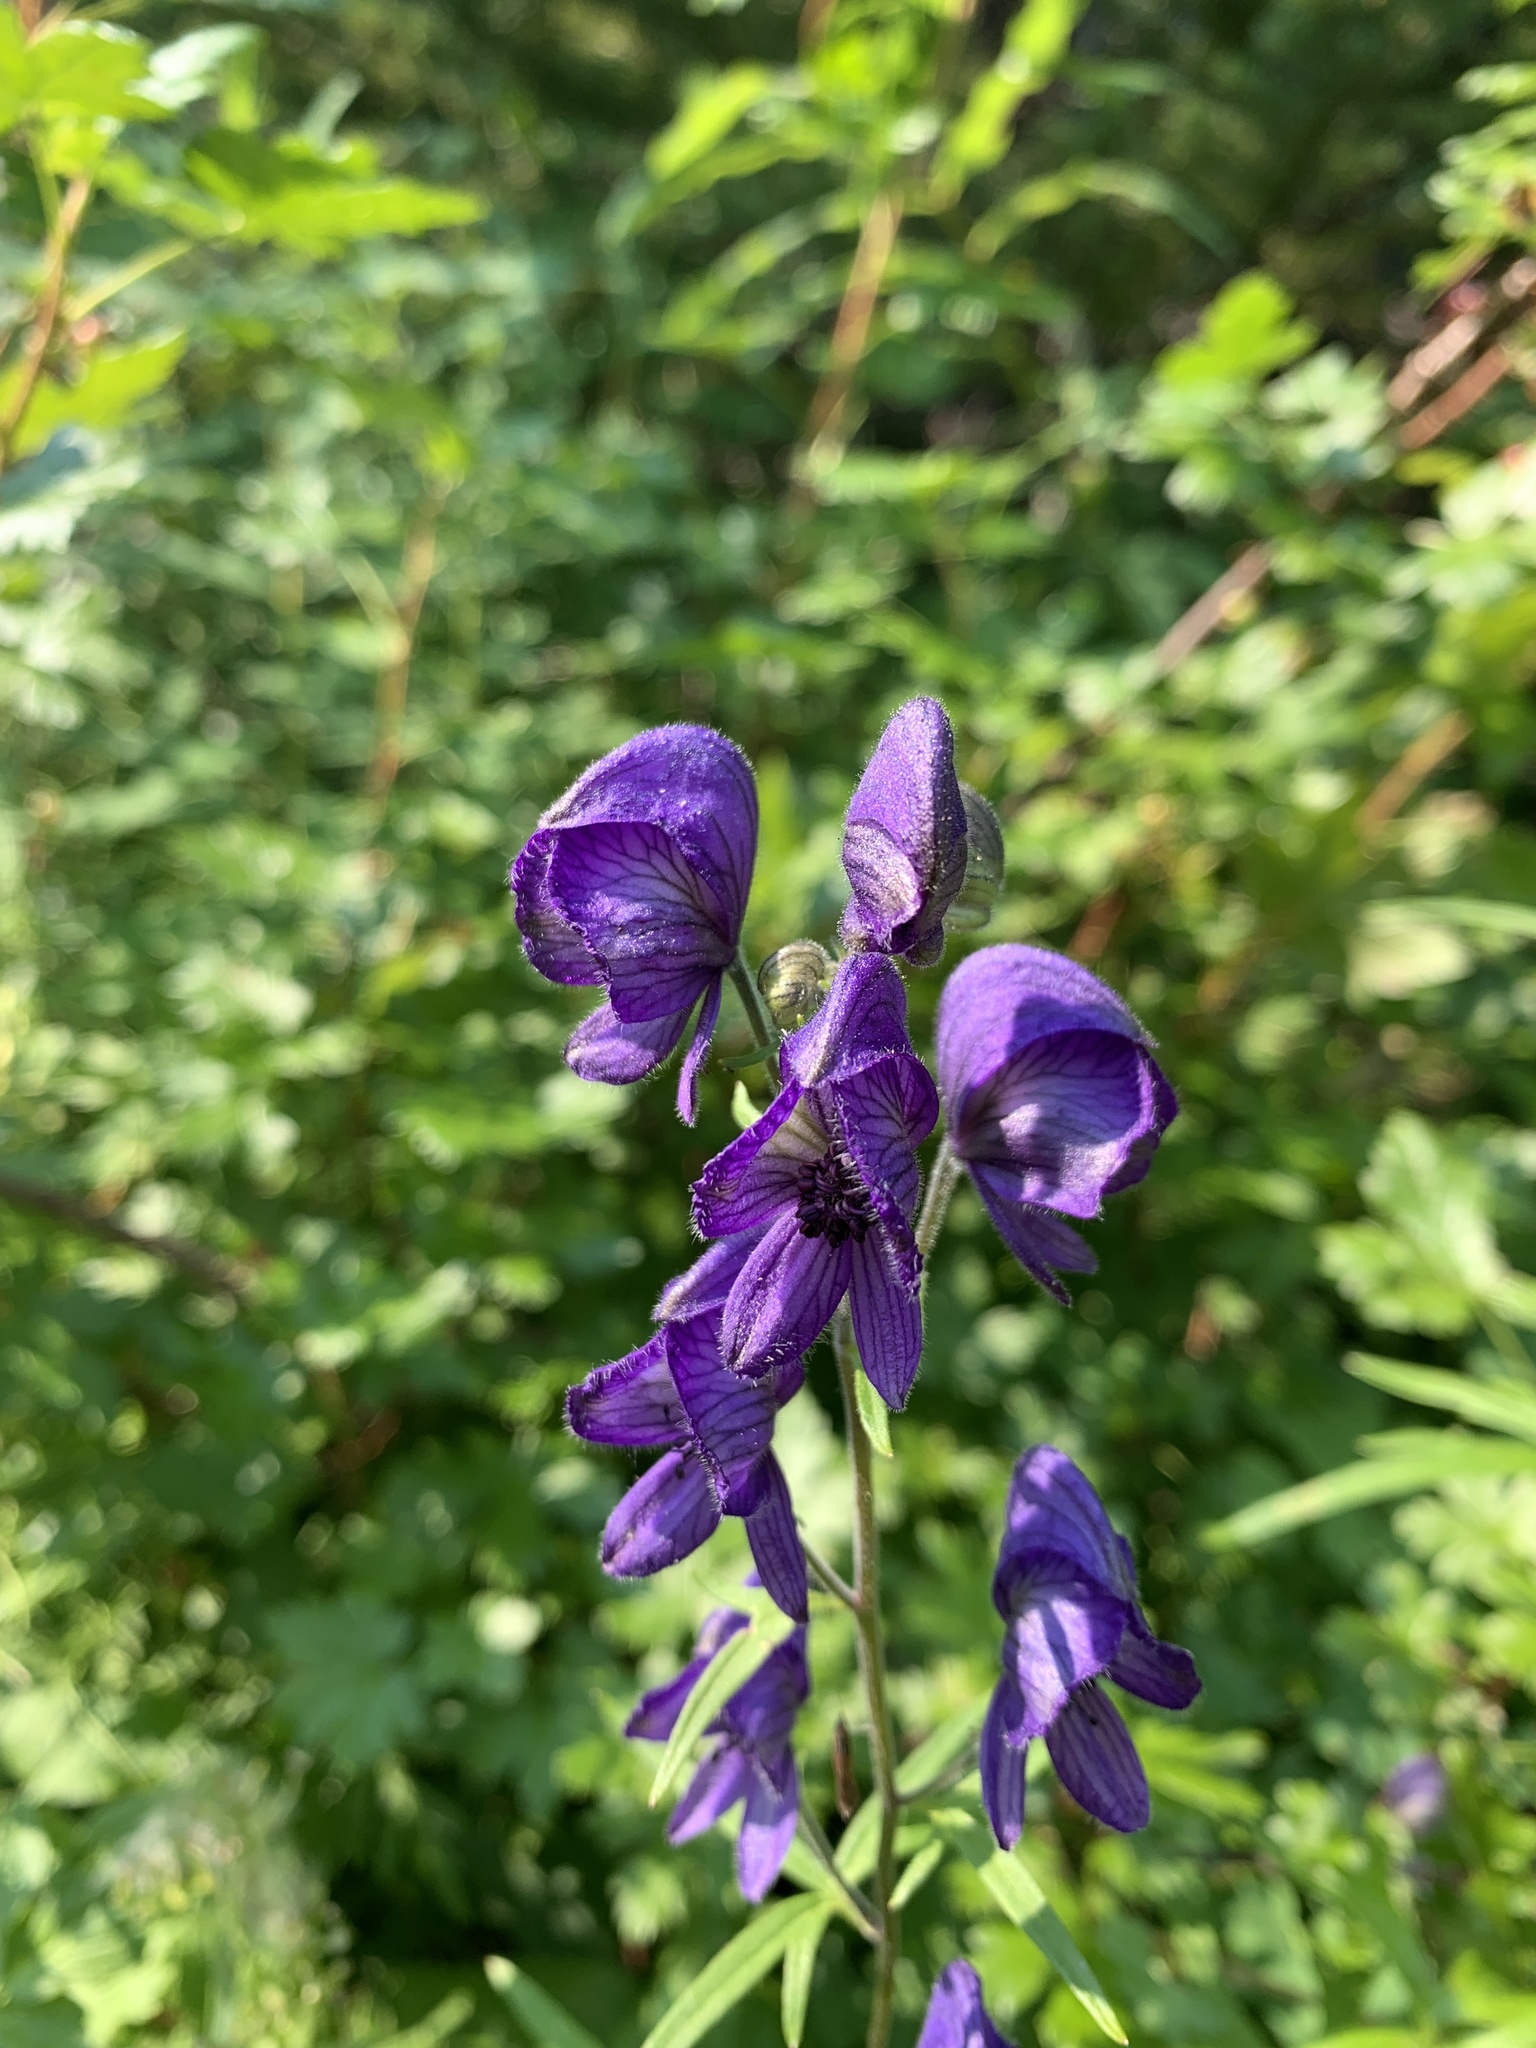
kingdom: Plantae
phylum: Tracheophyta
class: Magnoliopsida
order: Ranunculales
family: Ranunculaceae
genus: Aconitum
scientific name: Aconitum delphiniifolium
